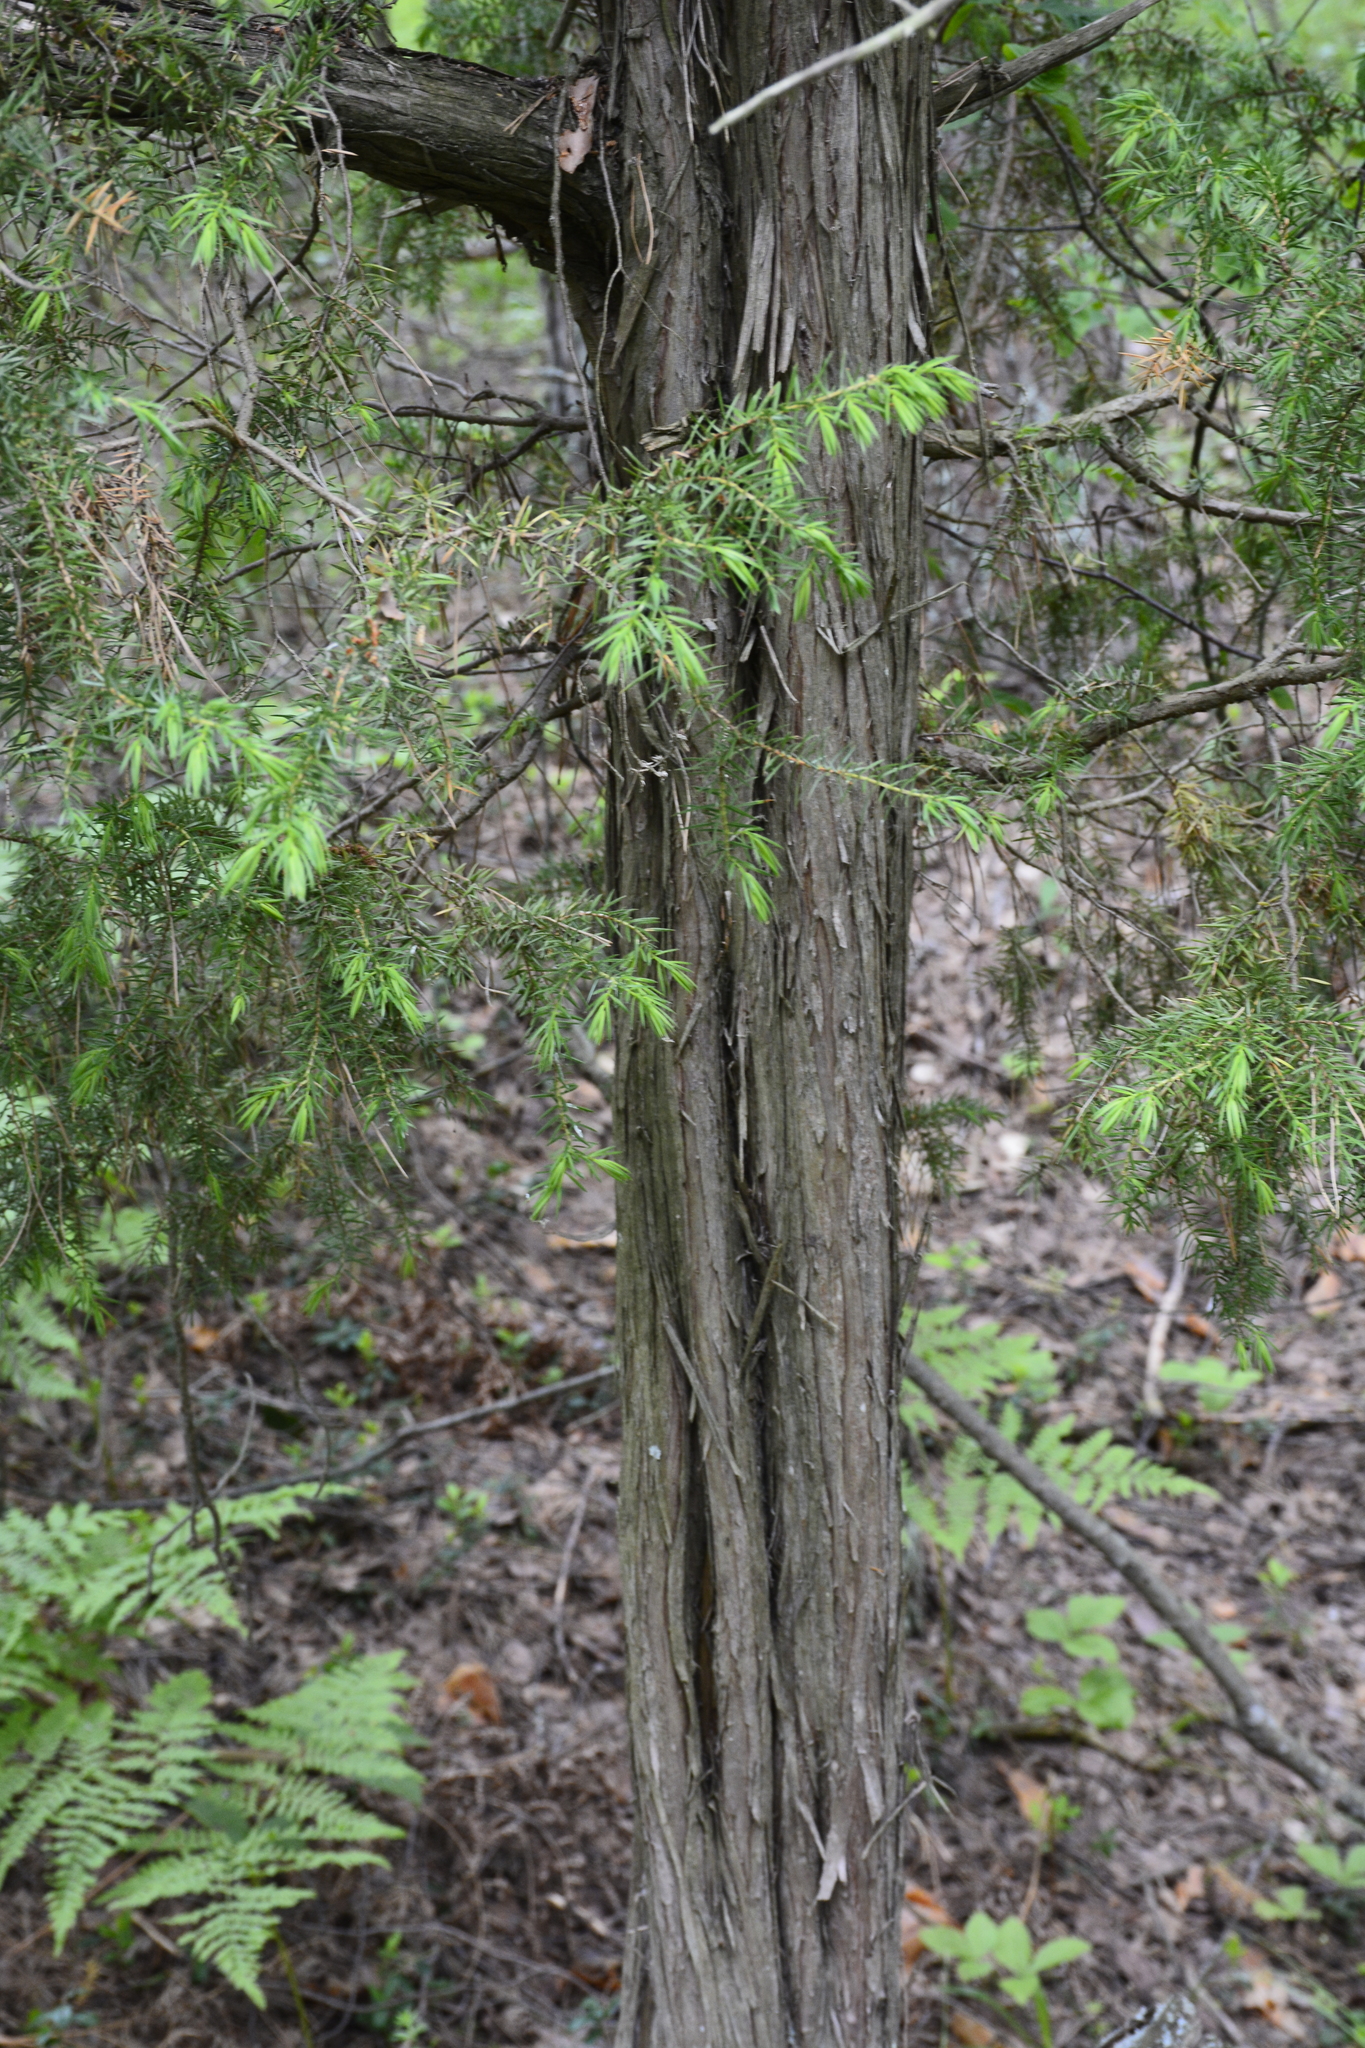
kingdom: Plantae
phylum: Tracheophyta
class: Pinopsida
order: Pinales
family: Cupressaceae
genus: Juniperus
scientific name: Juniperus communis
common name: Common juniper
